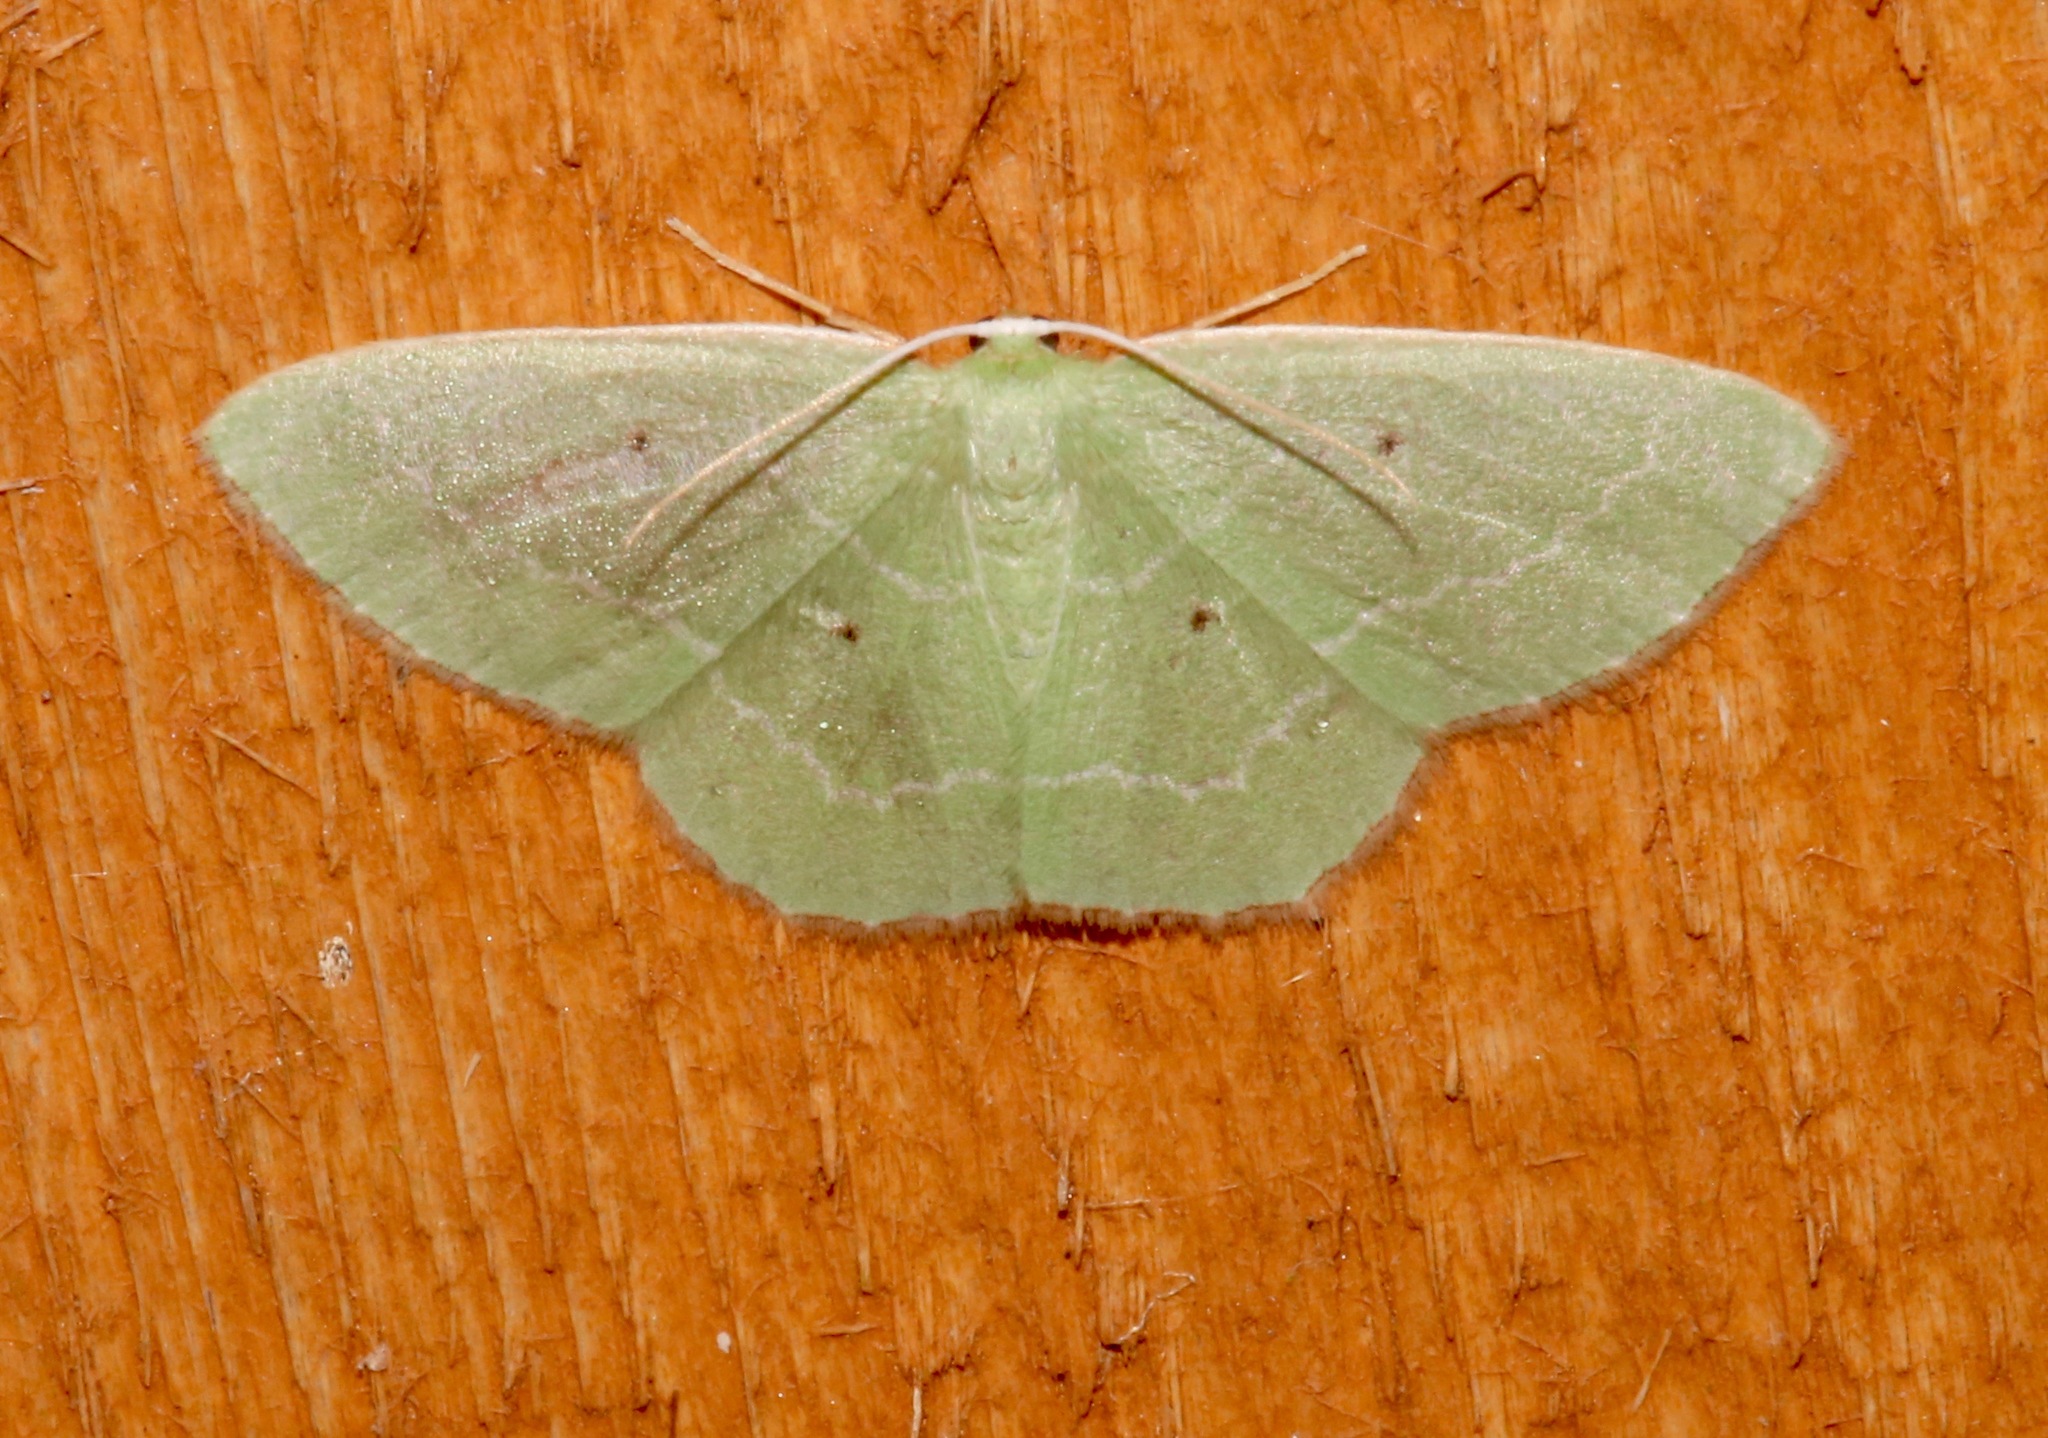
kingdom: Animalia
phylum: Arthropoda
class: Insecta
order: Lepidoptera
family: Geometridae
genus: Nemoria
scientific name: Nemoria elfa
